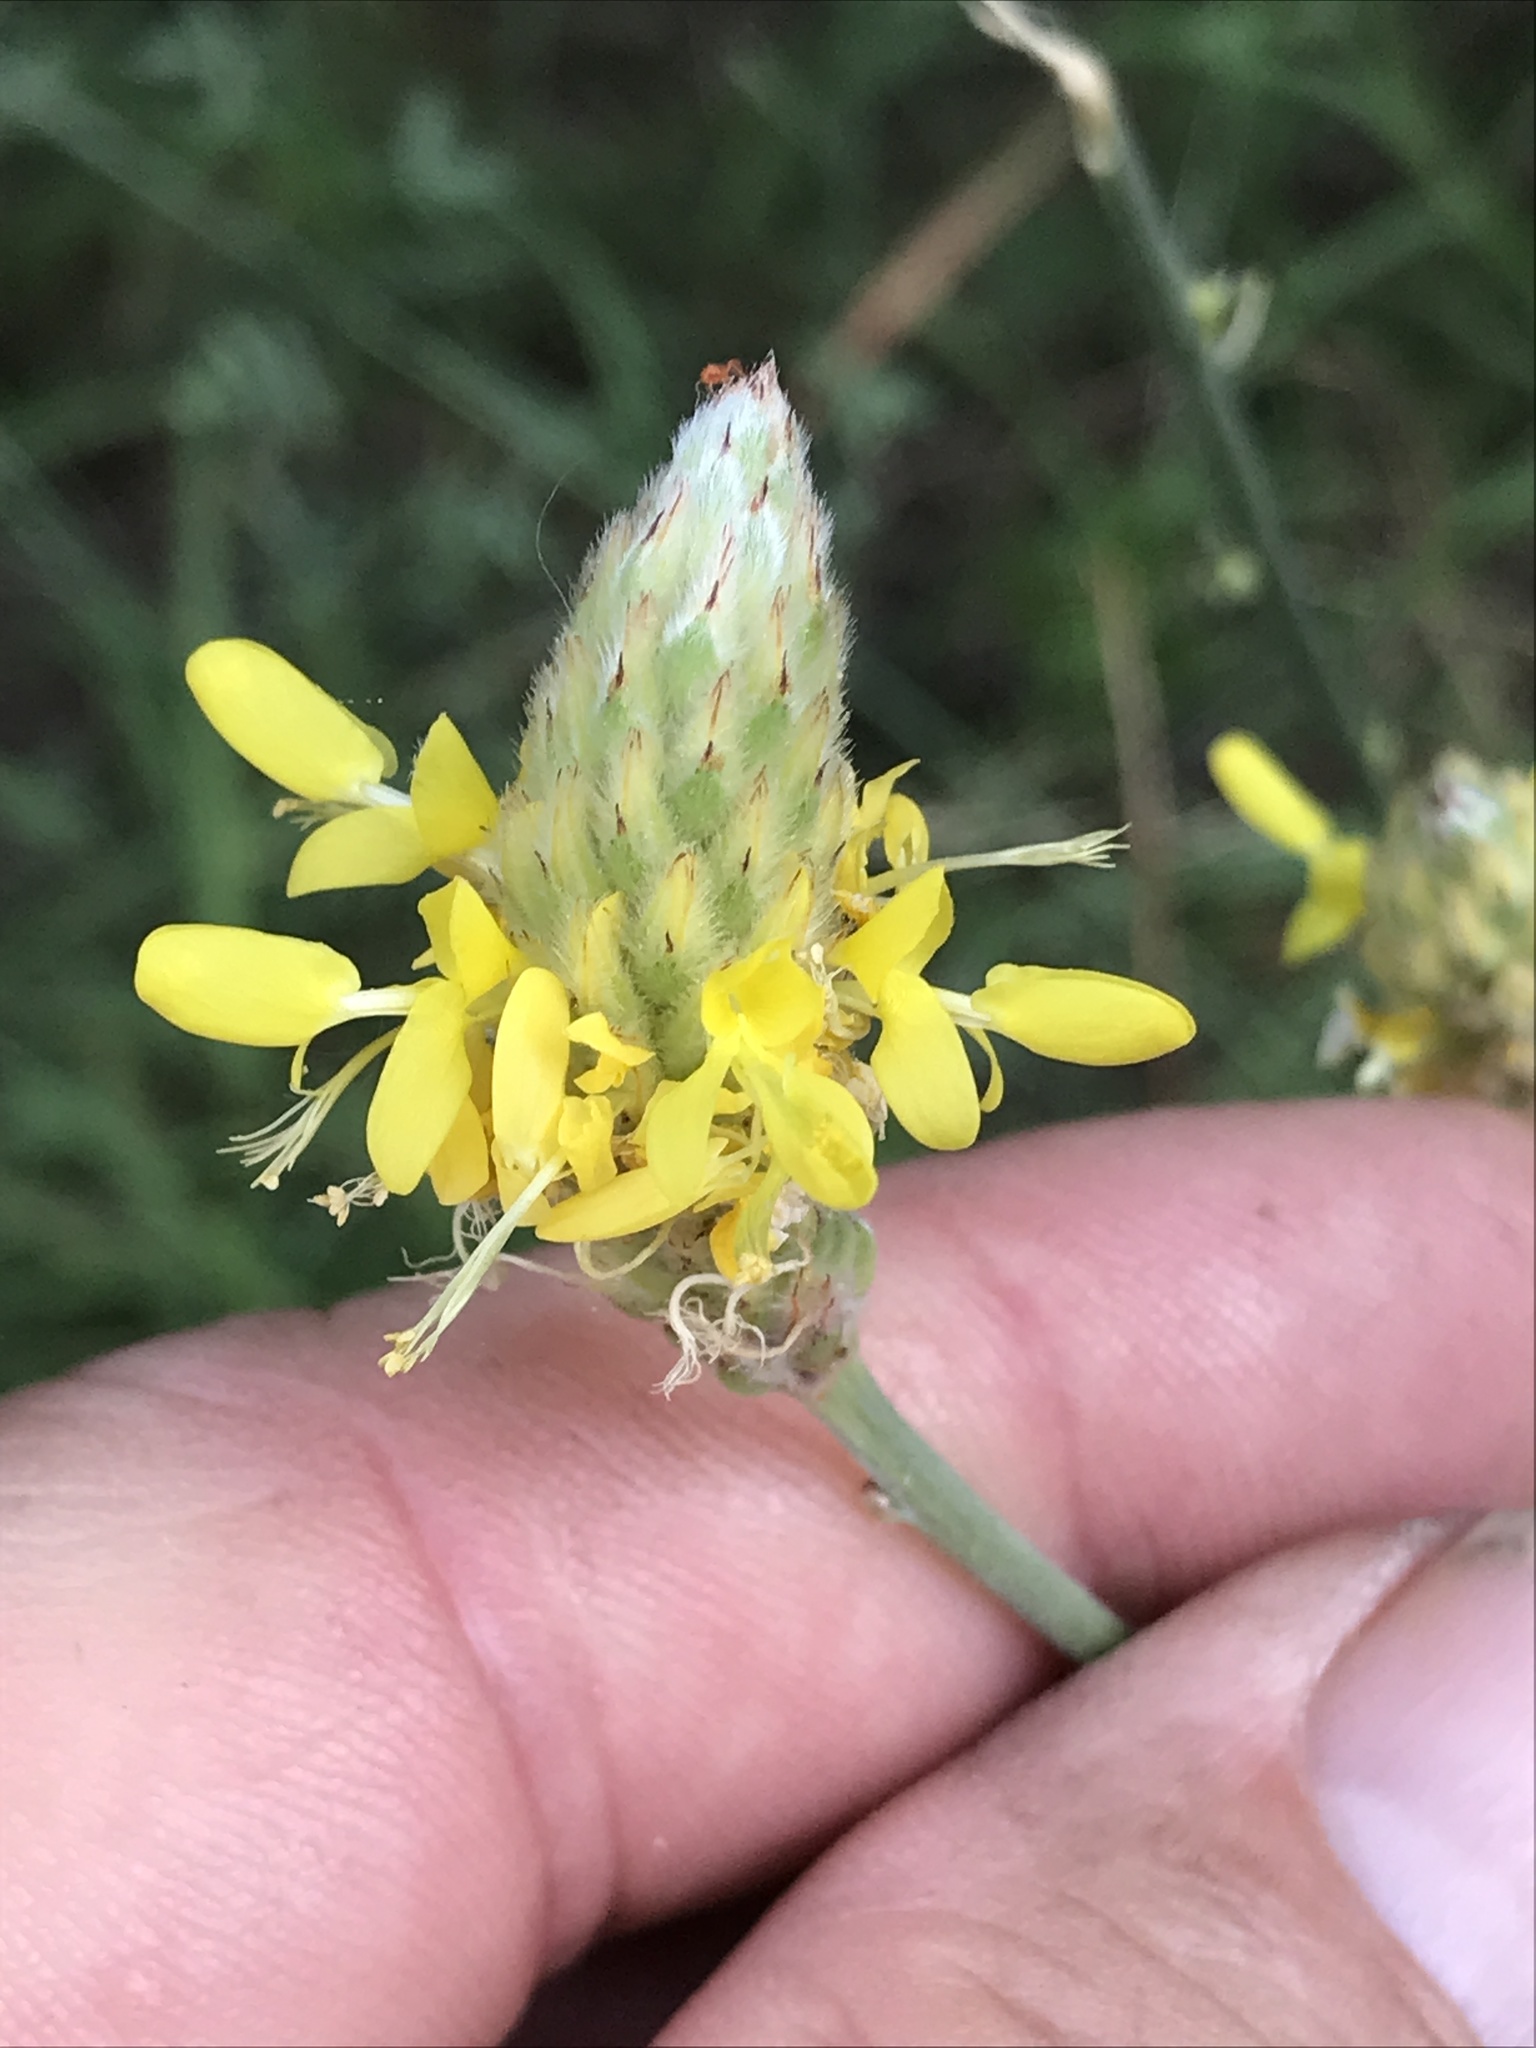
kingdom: Plantae
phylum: Tracheophyta
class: Magnoliopsida
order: Fabales
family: Fabaceae
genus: Dalea
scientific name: Dalea aurea
